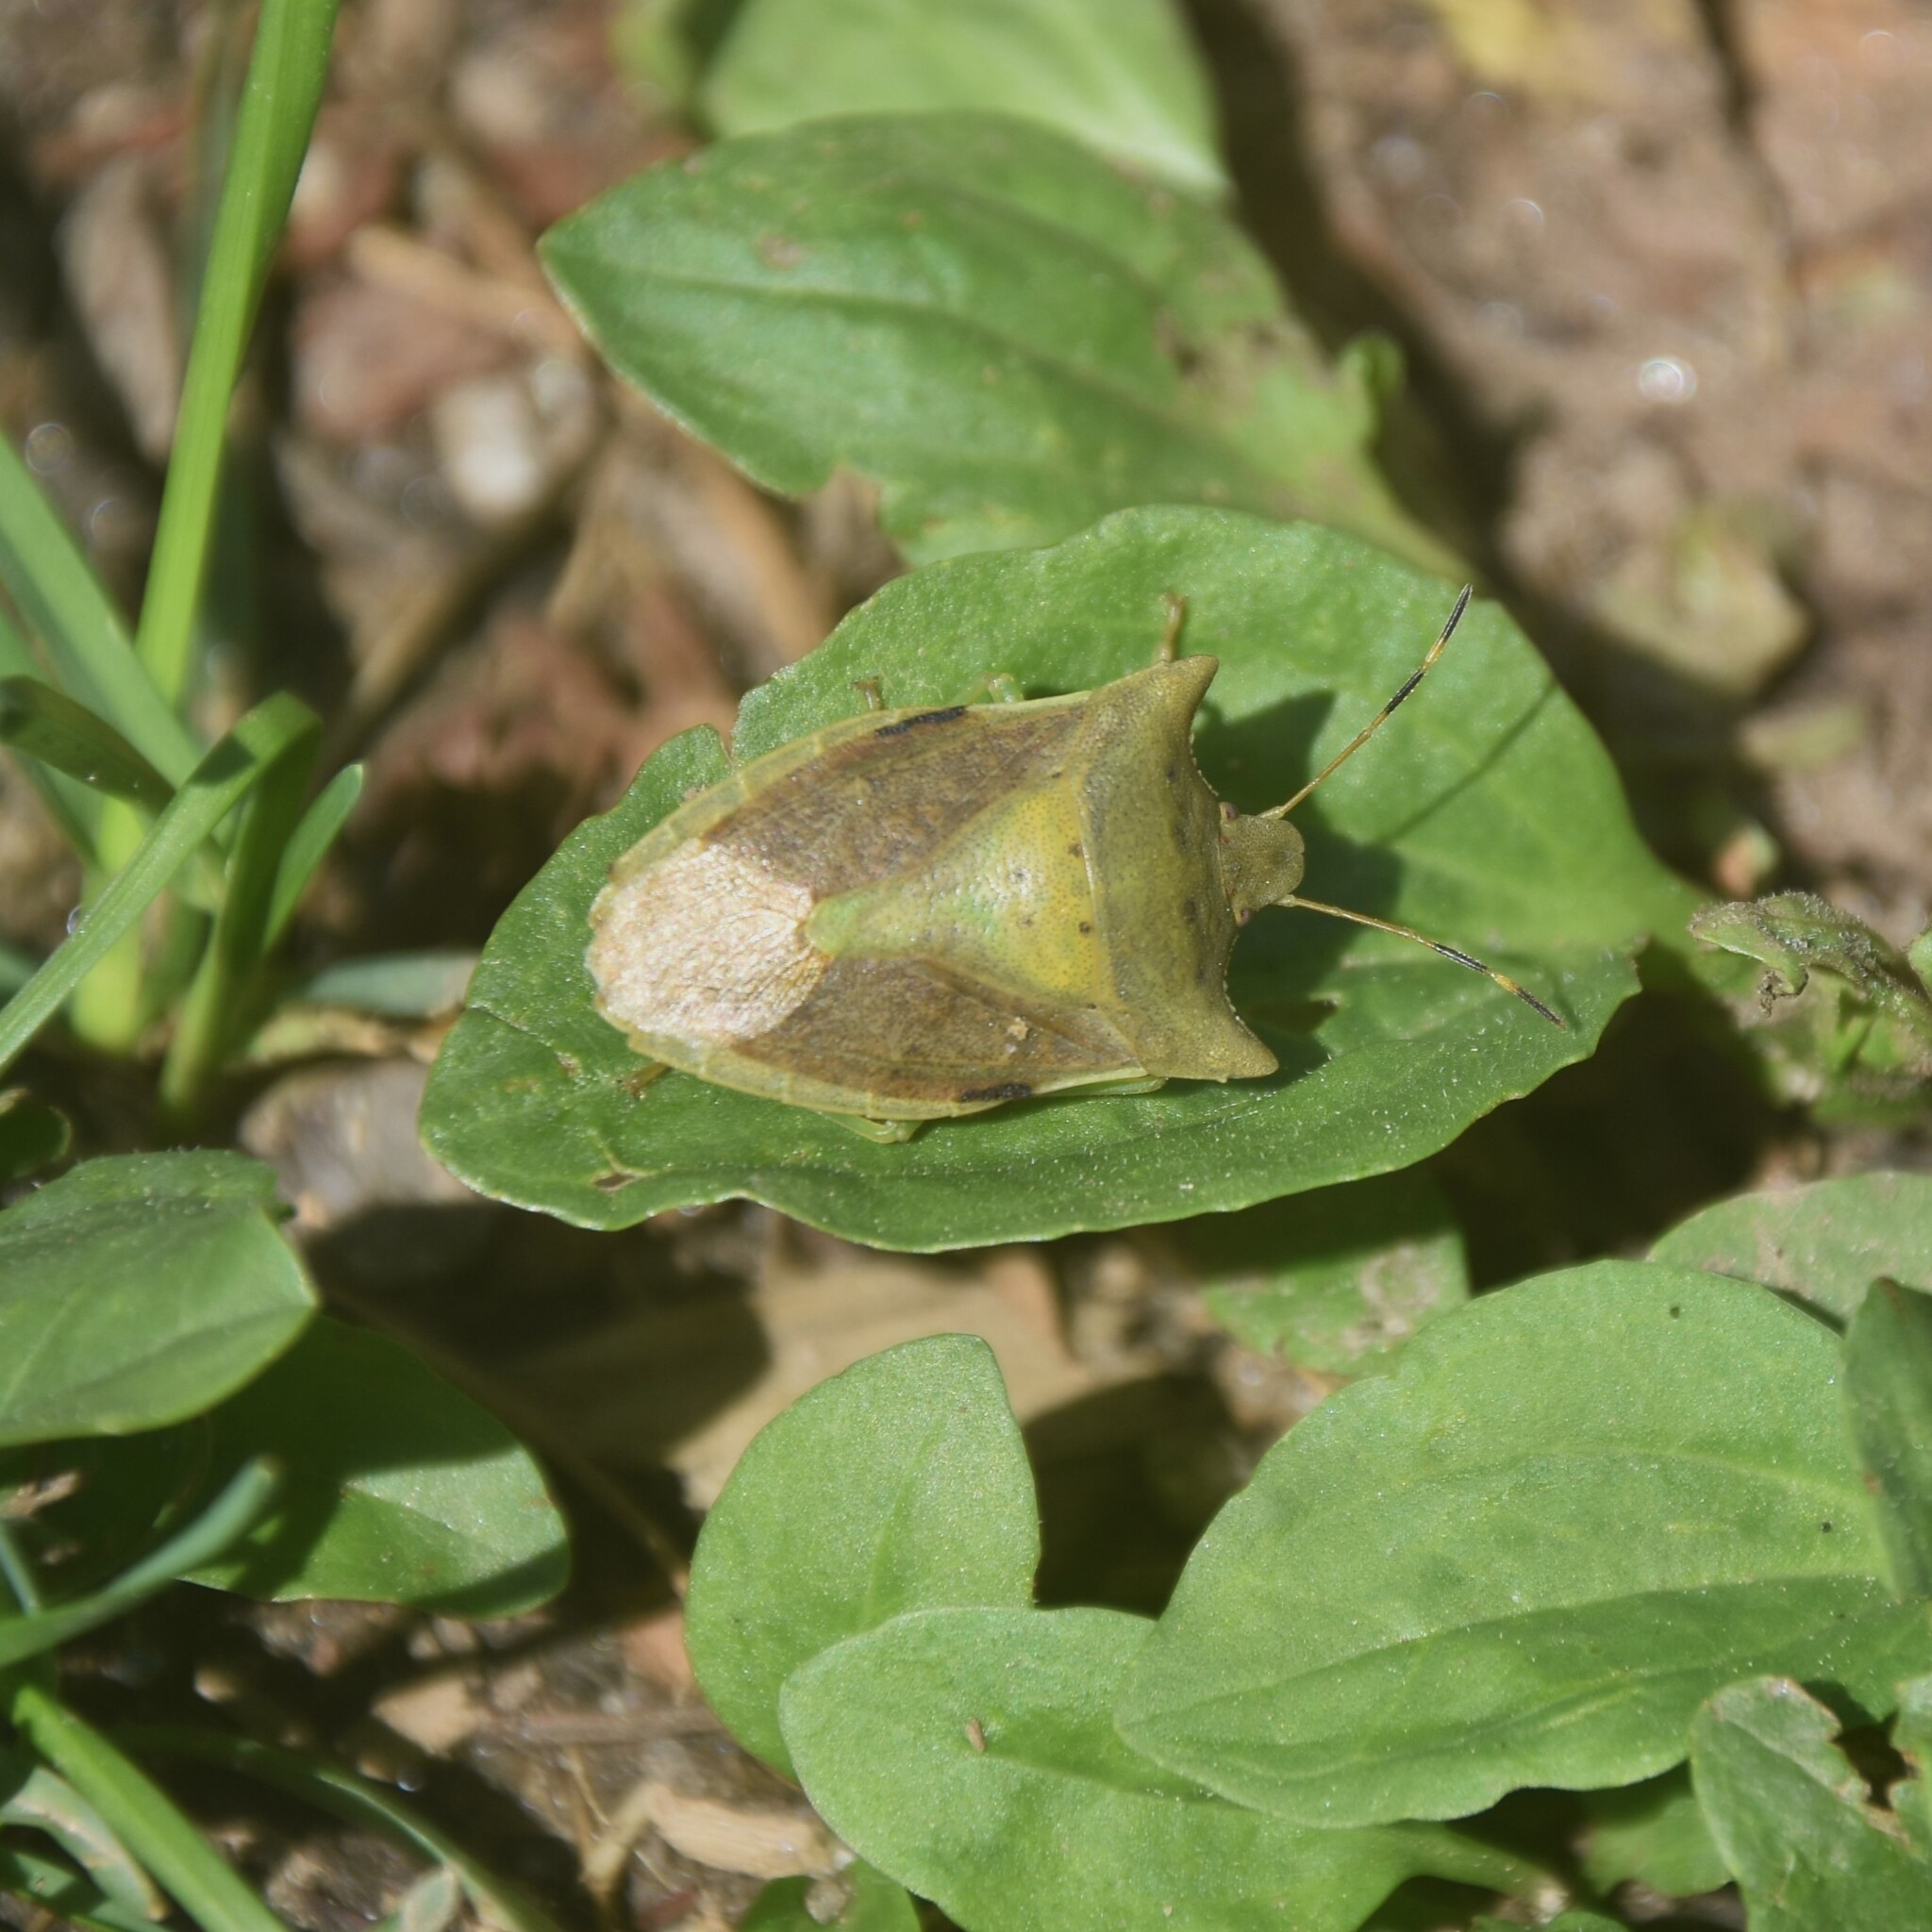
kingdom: Animalia
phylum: Arthropoda
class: Insecta
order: Hemiptera
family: Pentatomidae
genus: Lelia
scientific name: Lelia octopunctata
